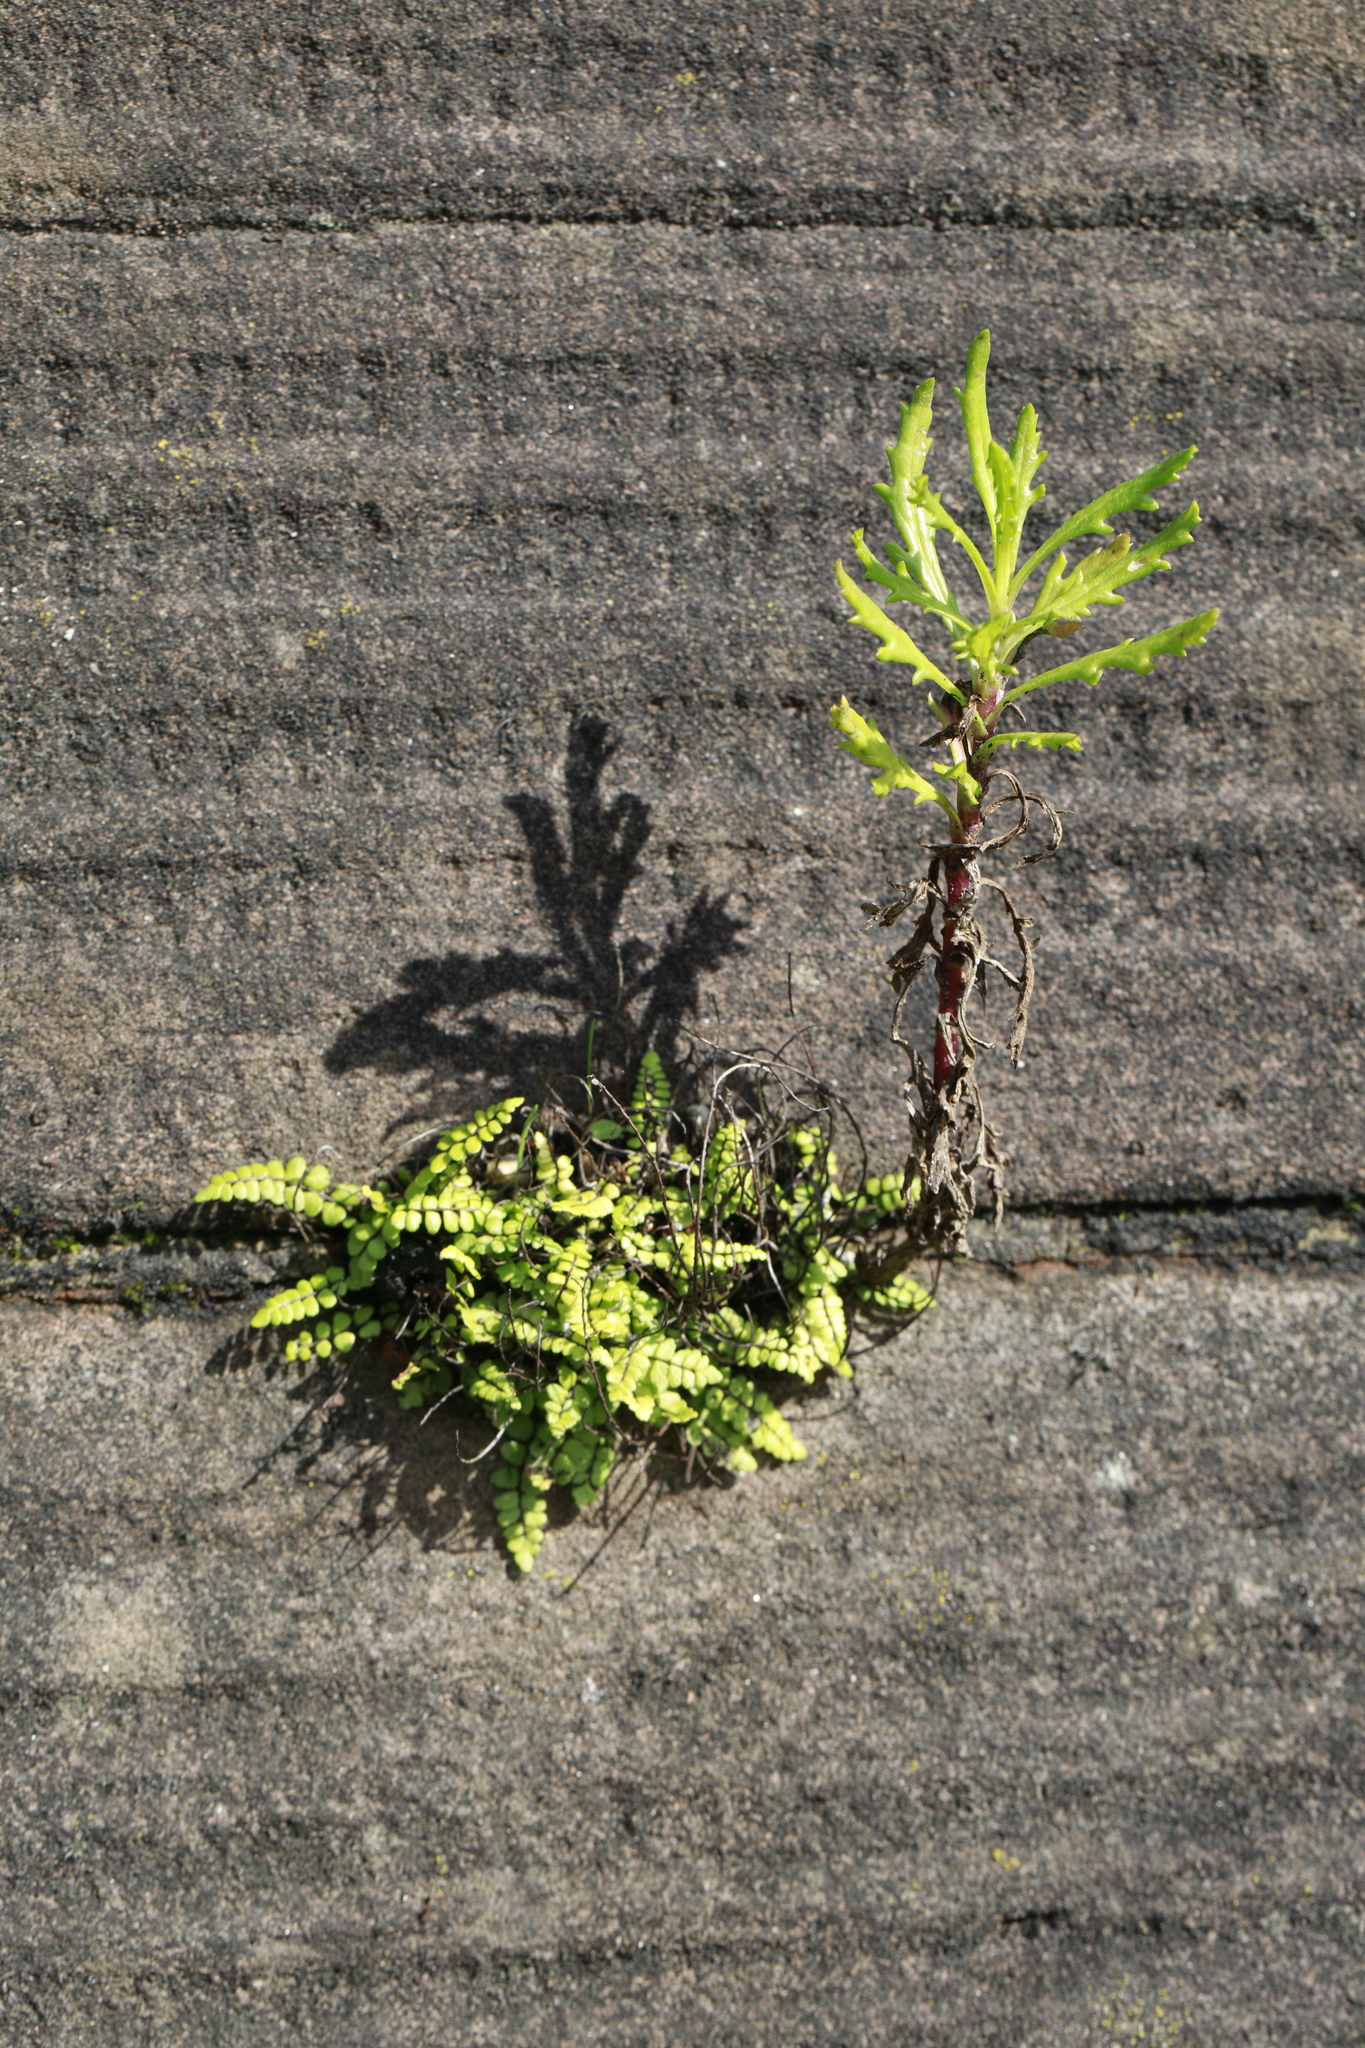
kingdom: Plantae
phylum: Tracheophyta
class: Polypodiopsida
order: Polypodiales
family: Aspleniaceae
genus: Asplenium
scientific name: Asplenium trichomanes
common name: Maidenhair spleenwort
